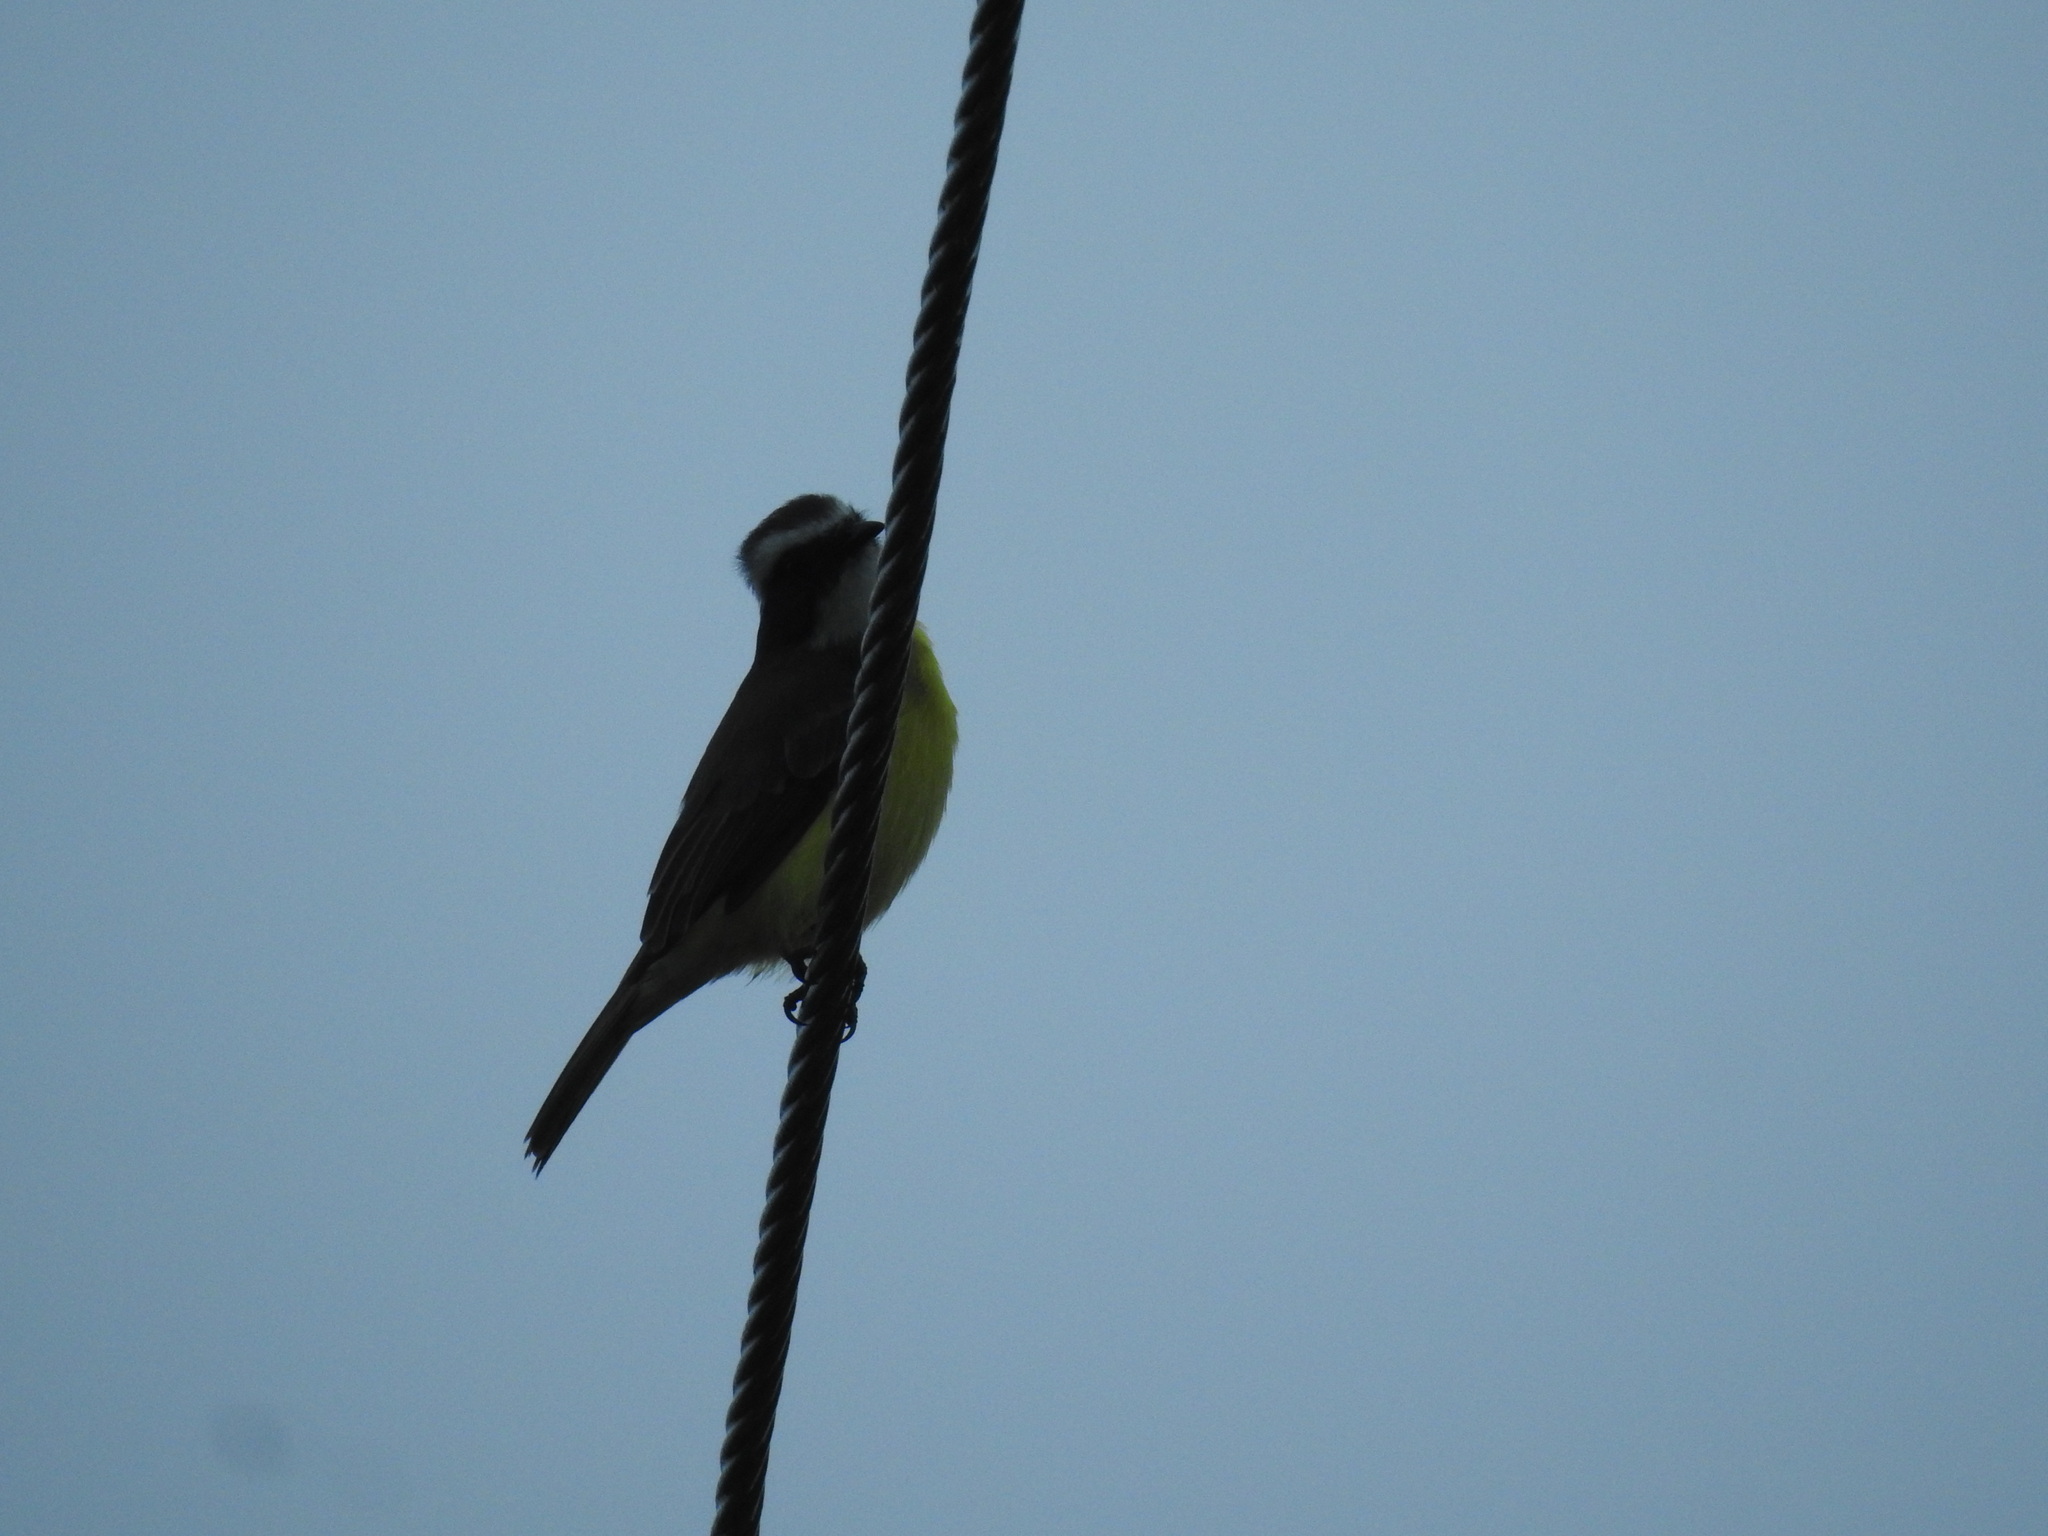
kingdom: Animalia
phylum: Chordata
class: Aves
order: Passeriformes
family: Tyrannidae
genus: Pitangus
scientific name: Pitangus sulphuratus
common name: Great kiskadee
